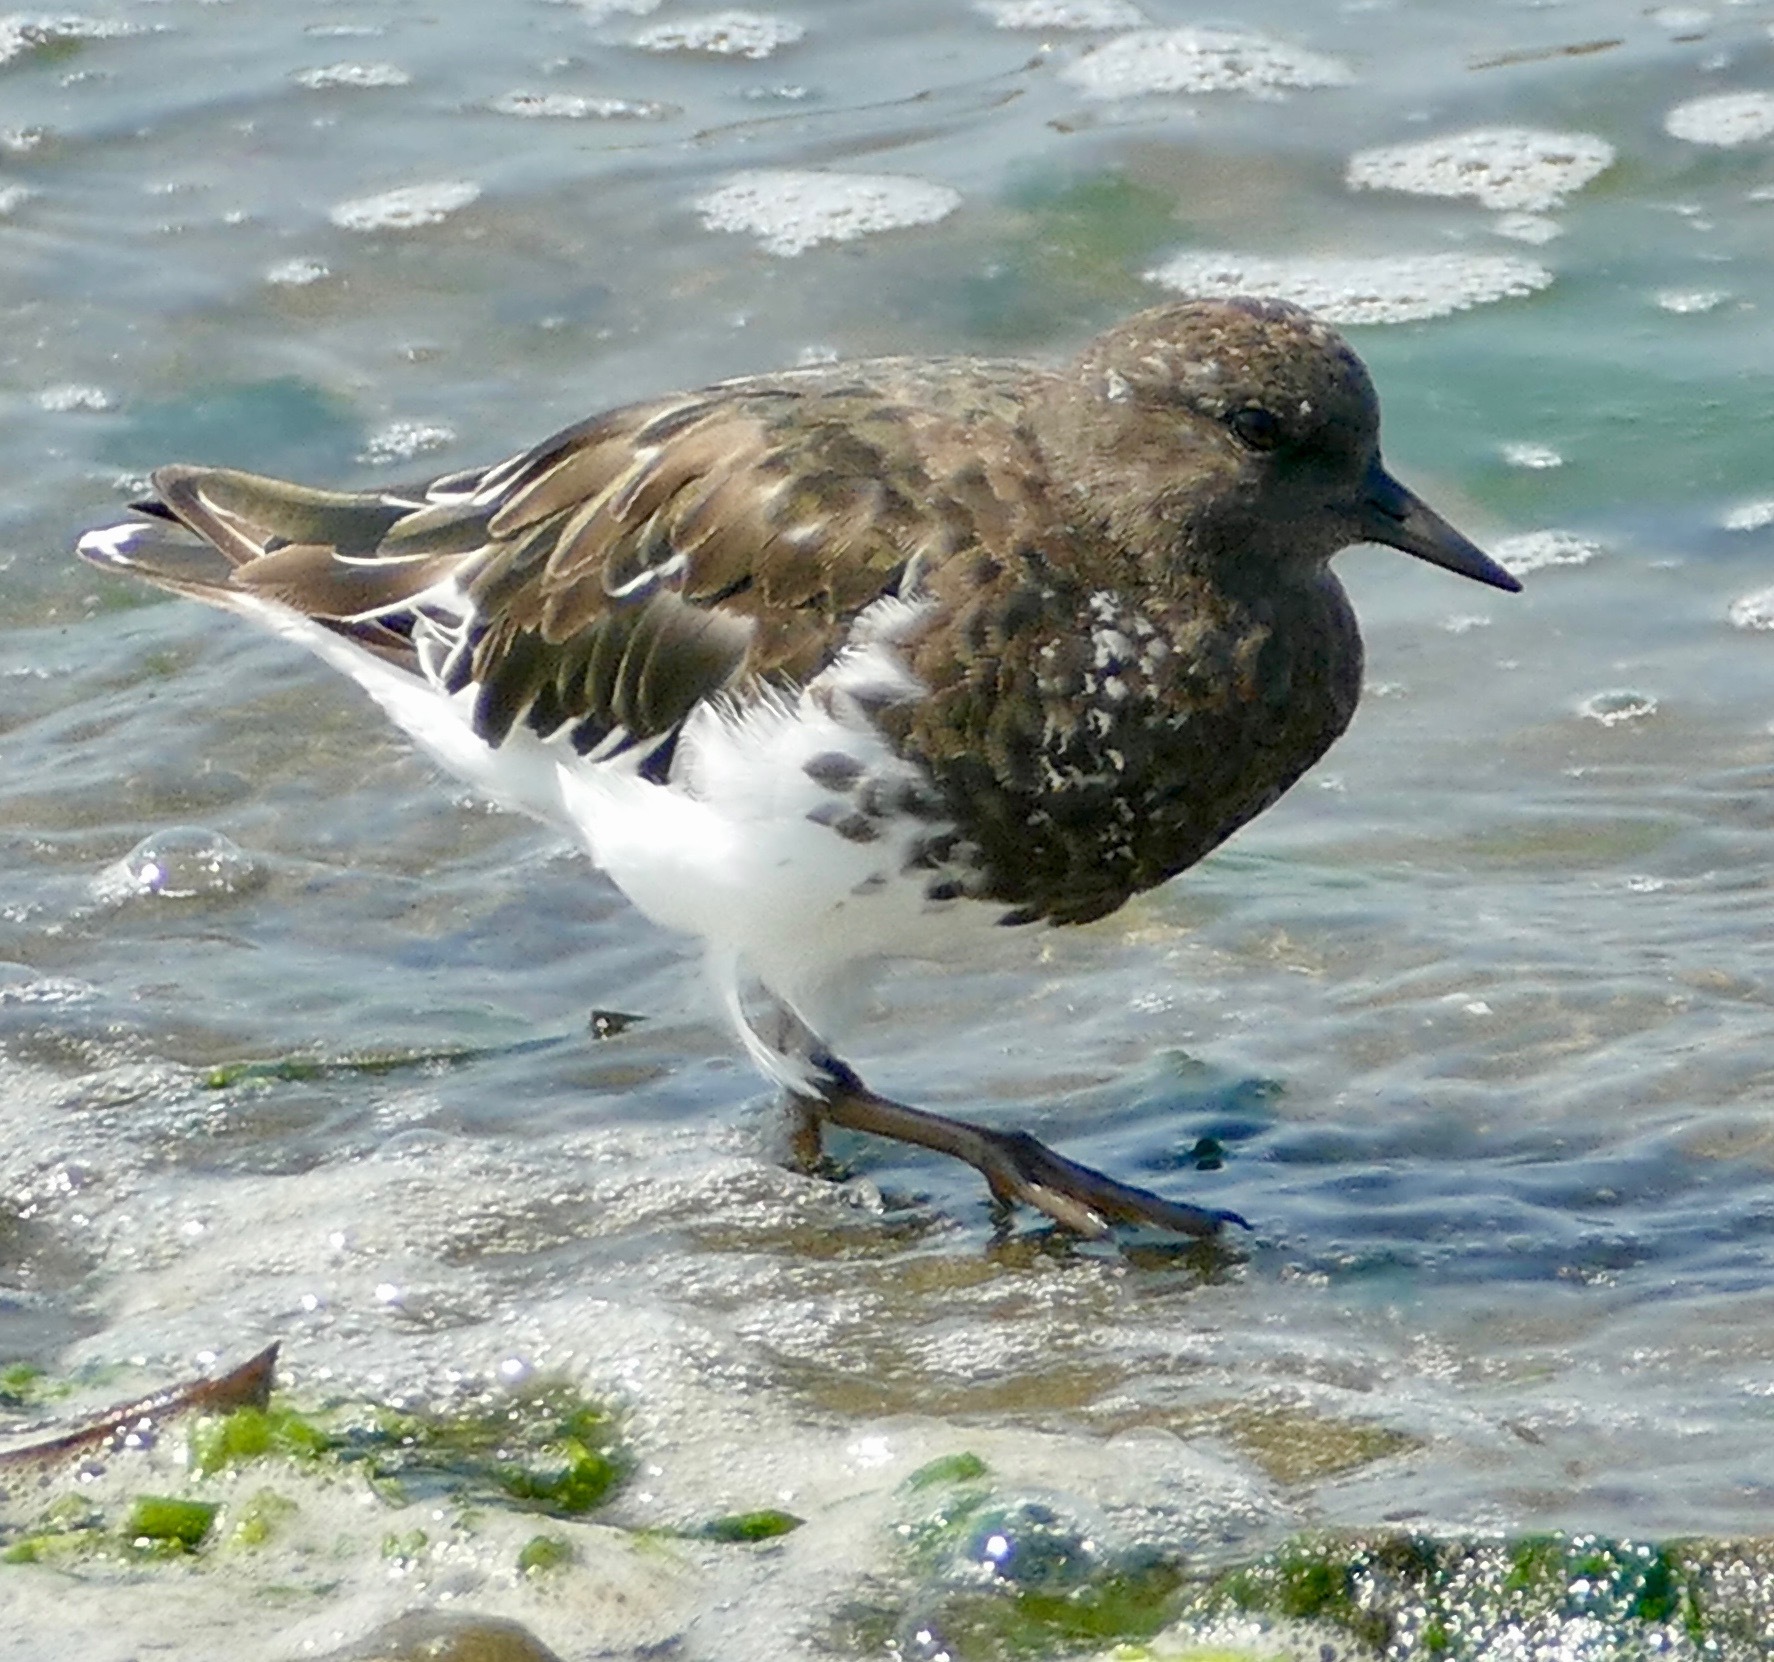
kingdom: Animalia
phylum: Chordata
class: Aves
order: Charadriiformes
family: Scolopacidae
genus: Arenaria
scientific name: Arenaria melanocephala
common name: Black turnstone
